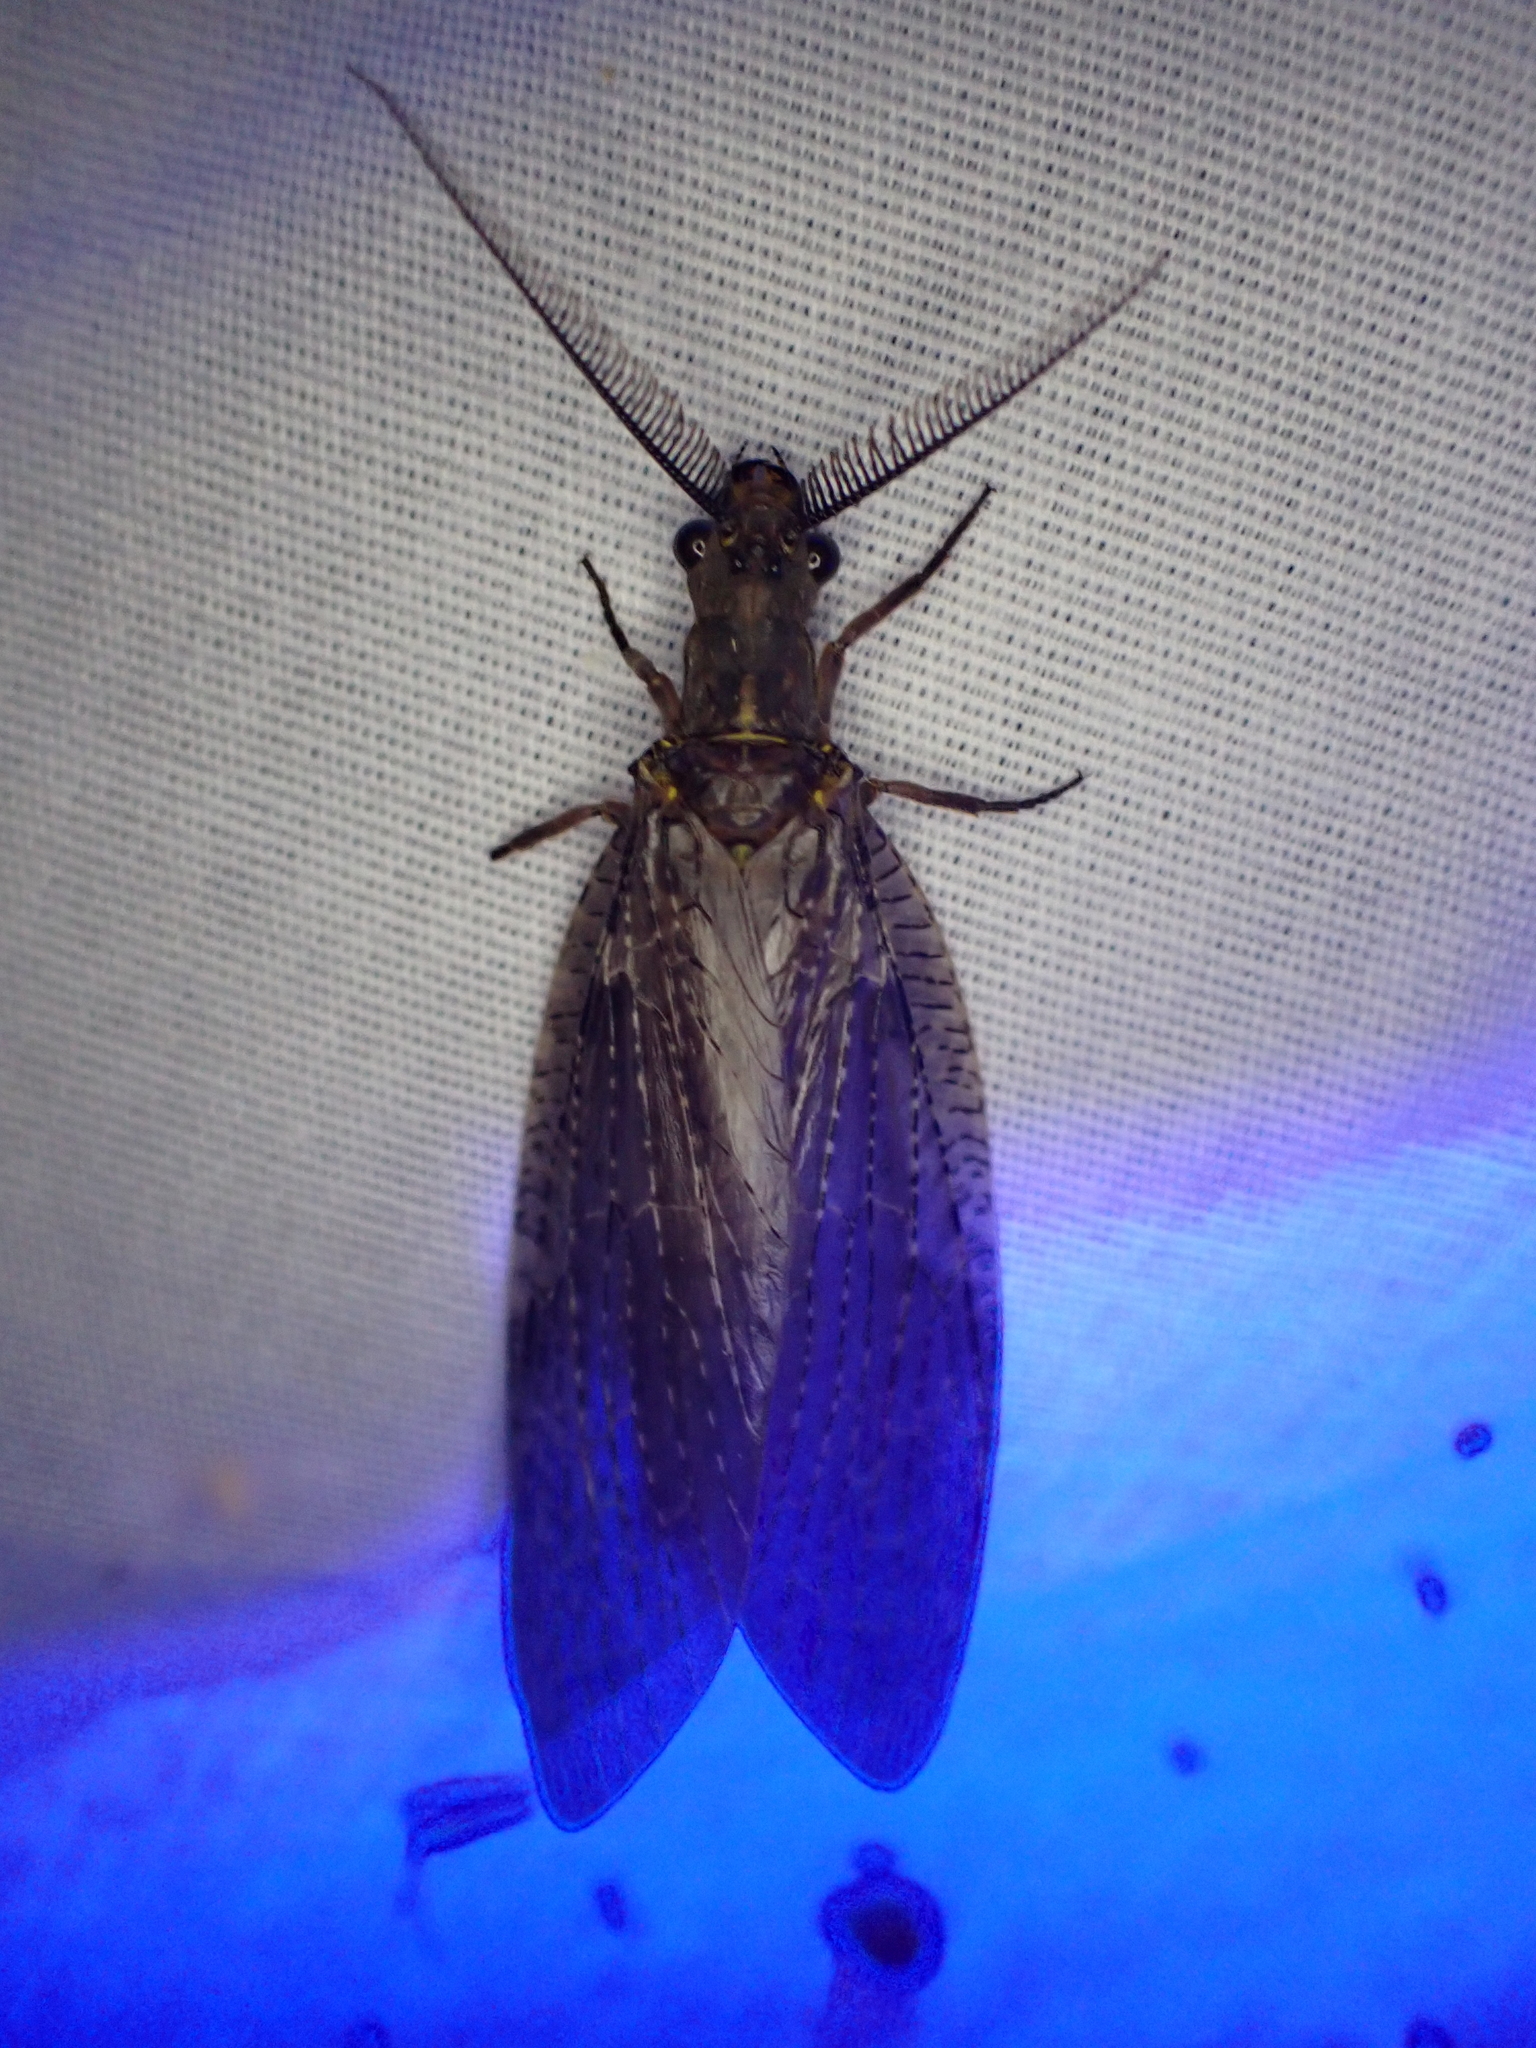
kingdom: Animalia
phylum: Arthropoda
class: Insecta
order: Megaloptera
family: Corydalidae
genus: Chauliodes
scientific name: Chauliodes pectinicornis
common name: Summer fishfly
